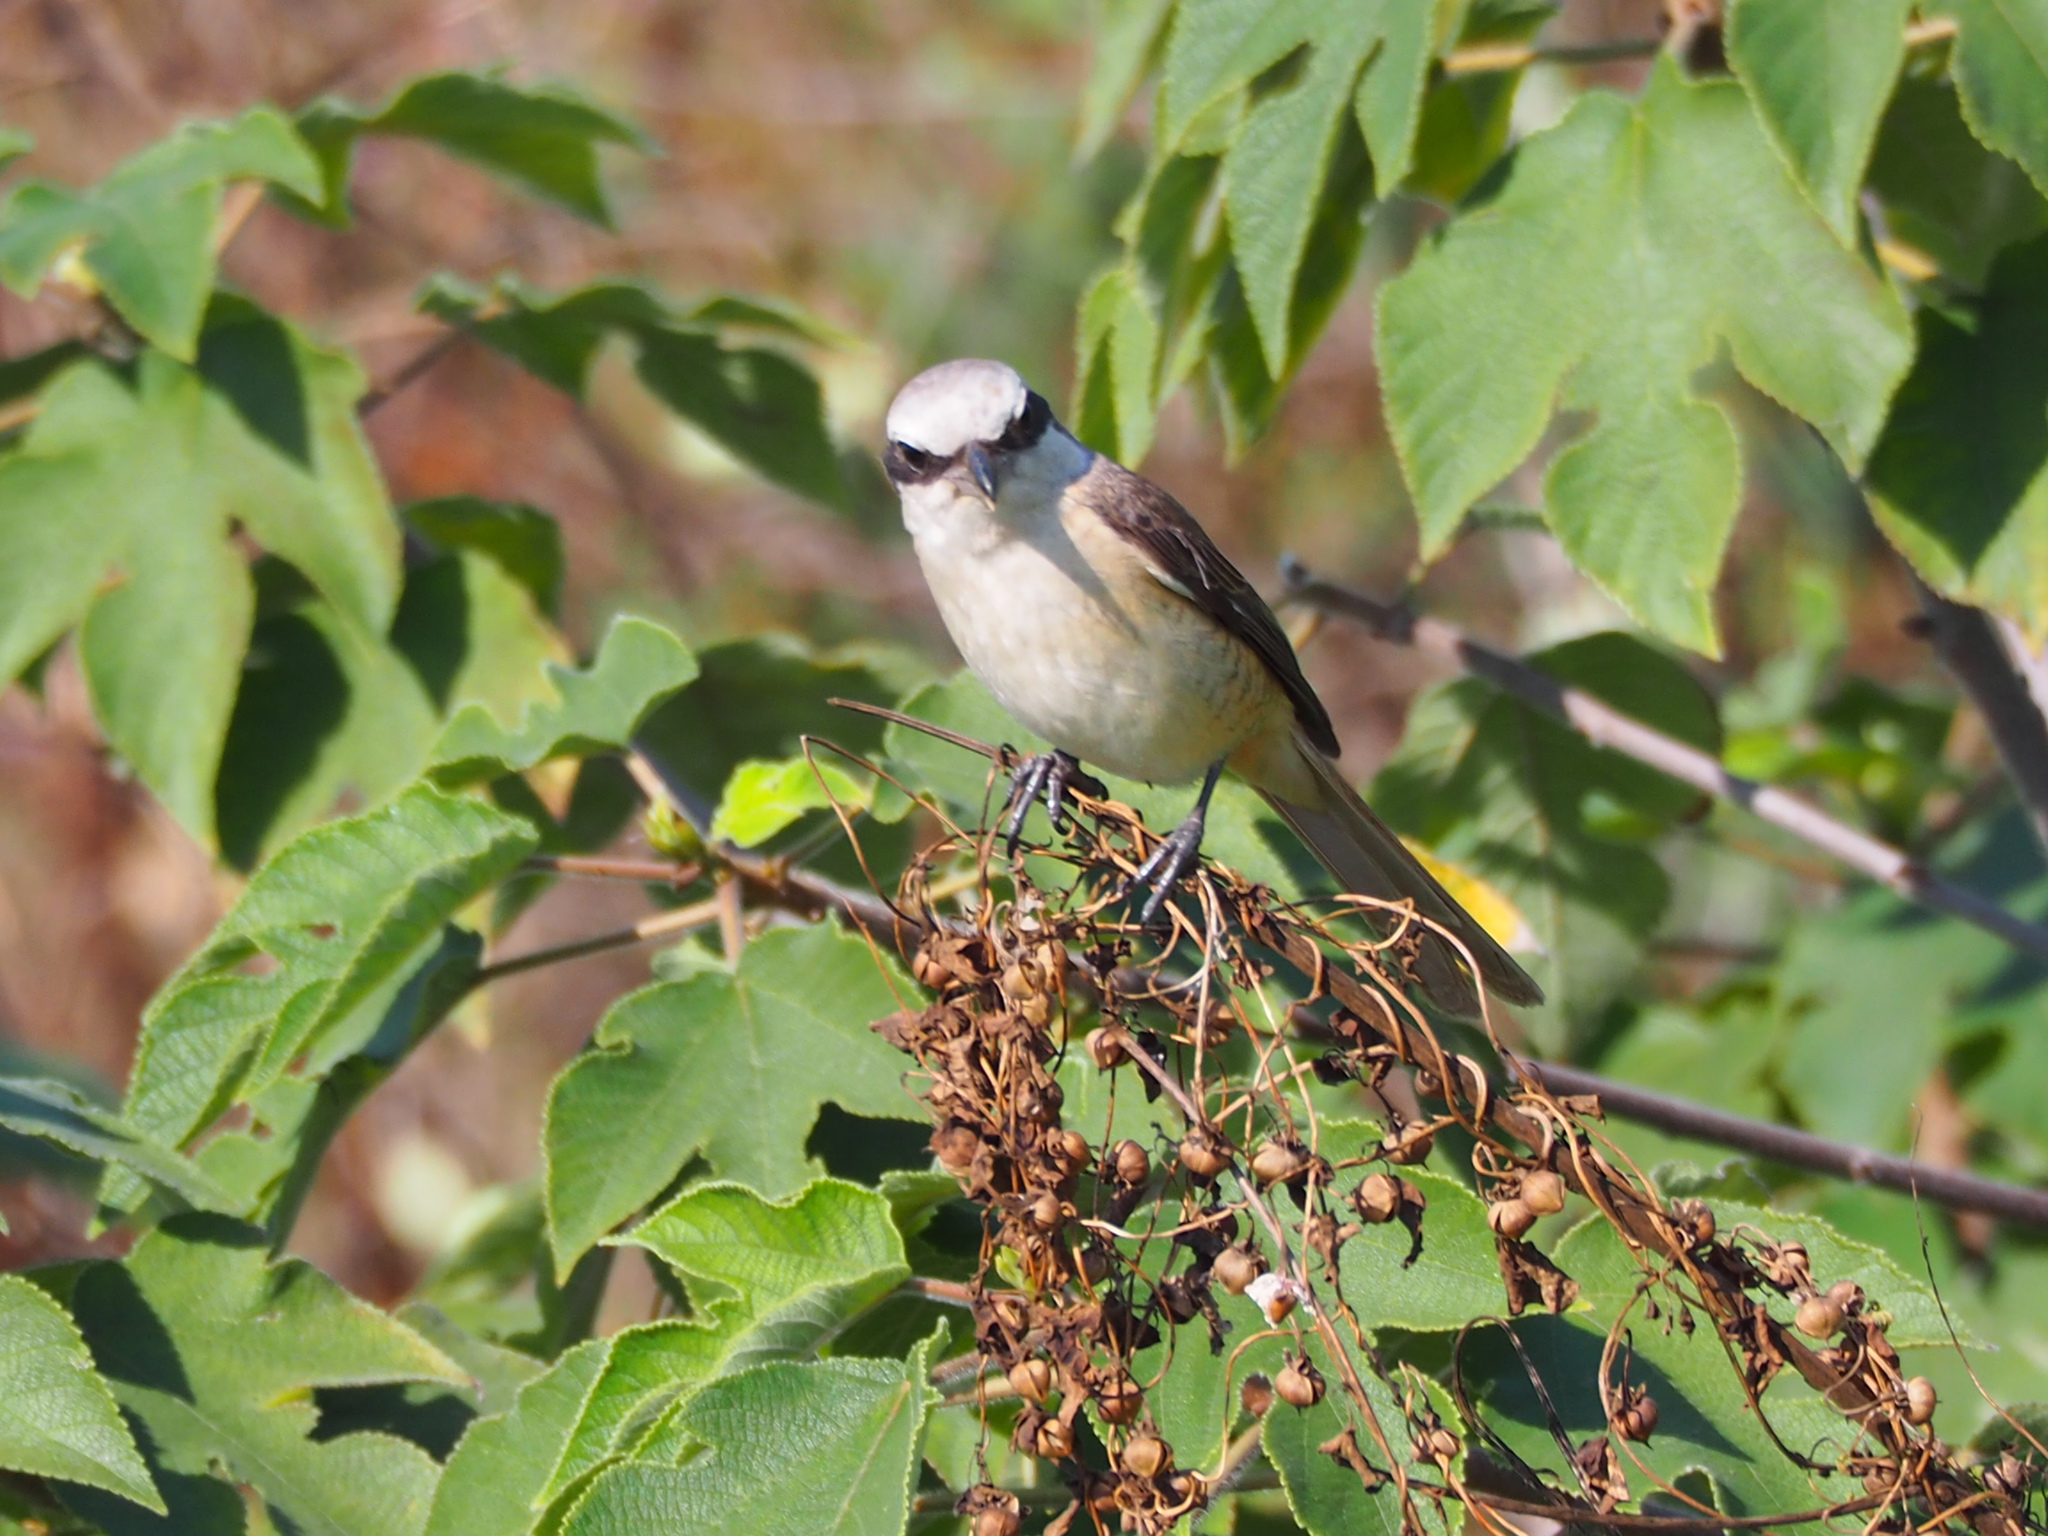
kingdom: Animalia
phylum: Chordata
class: Aves
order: Passeriformes
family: Laniidae
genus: Lanius
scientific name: Lanius cristatus
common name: Brown shrike
